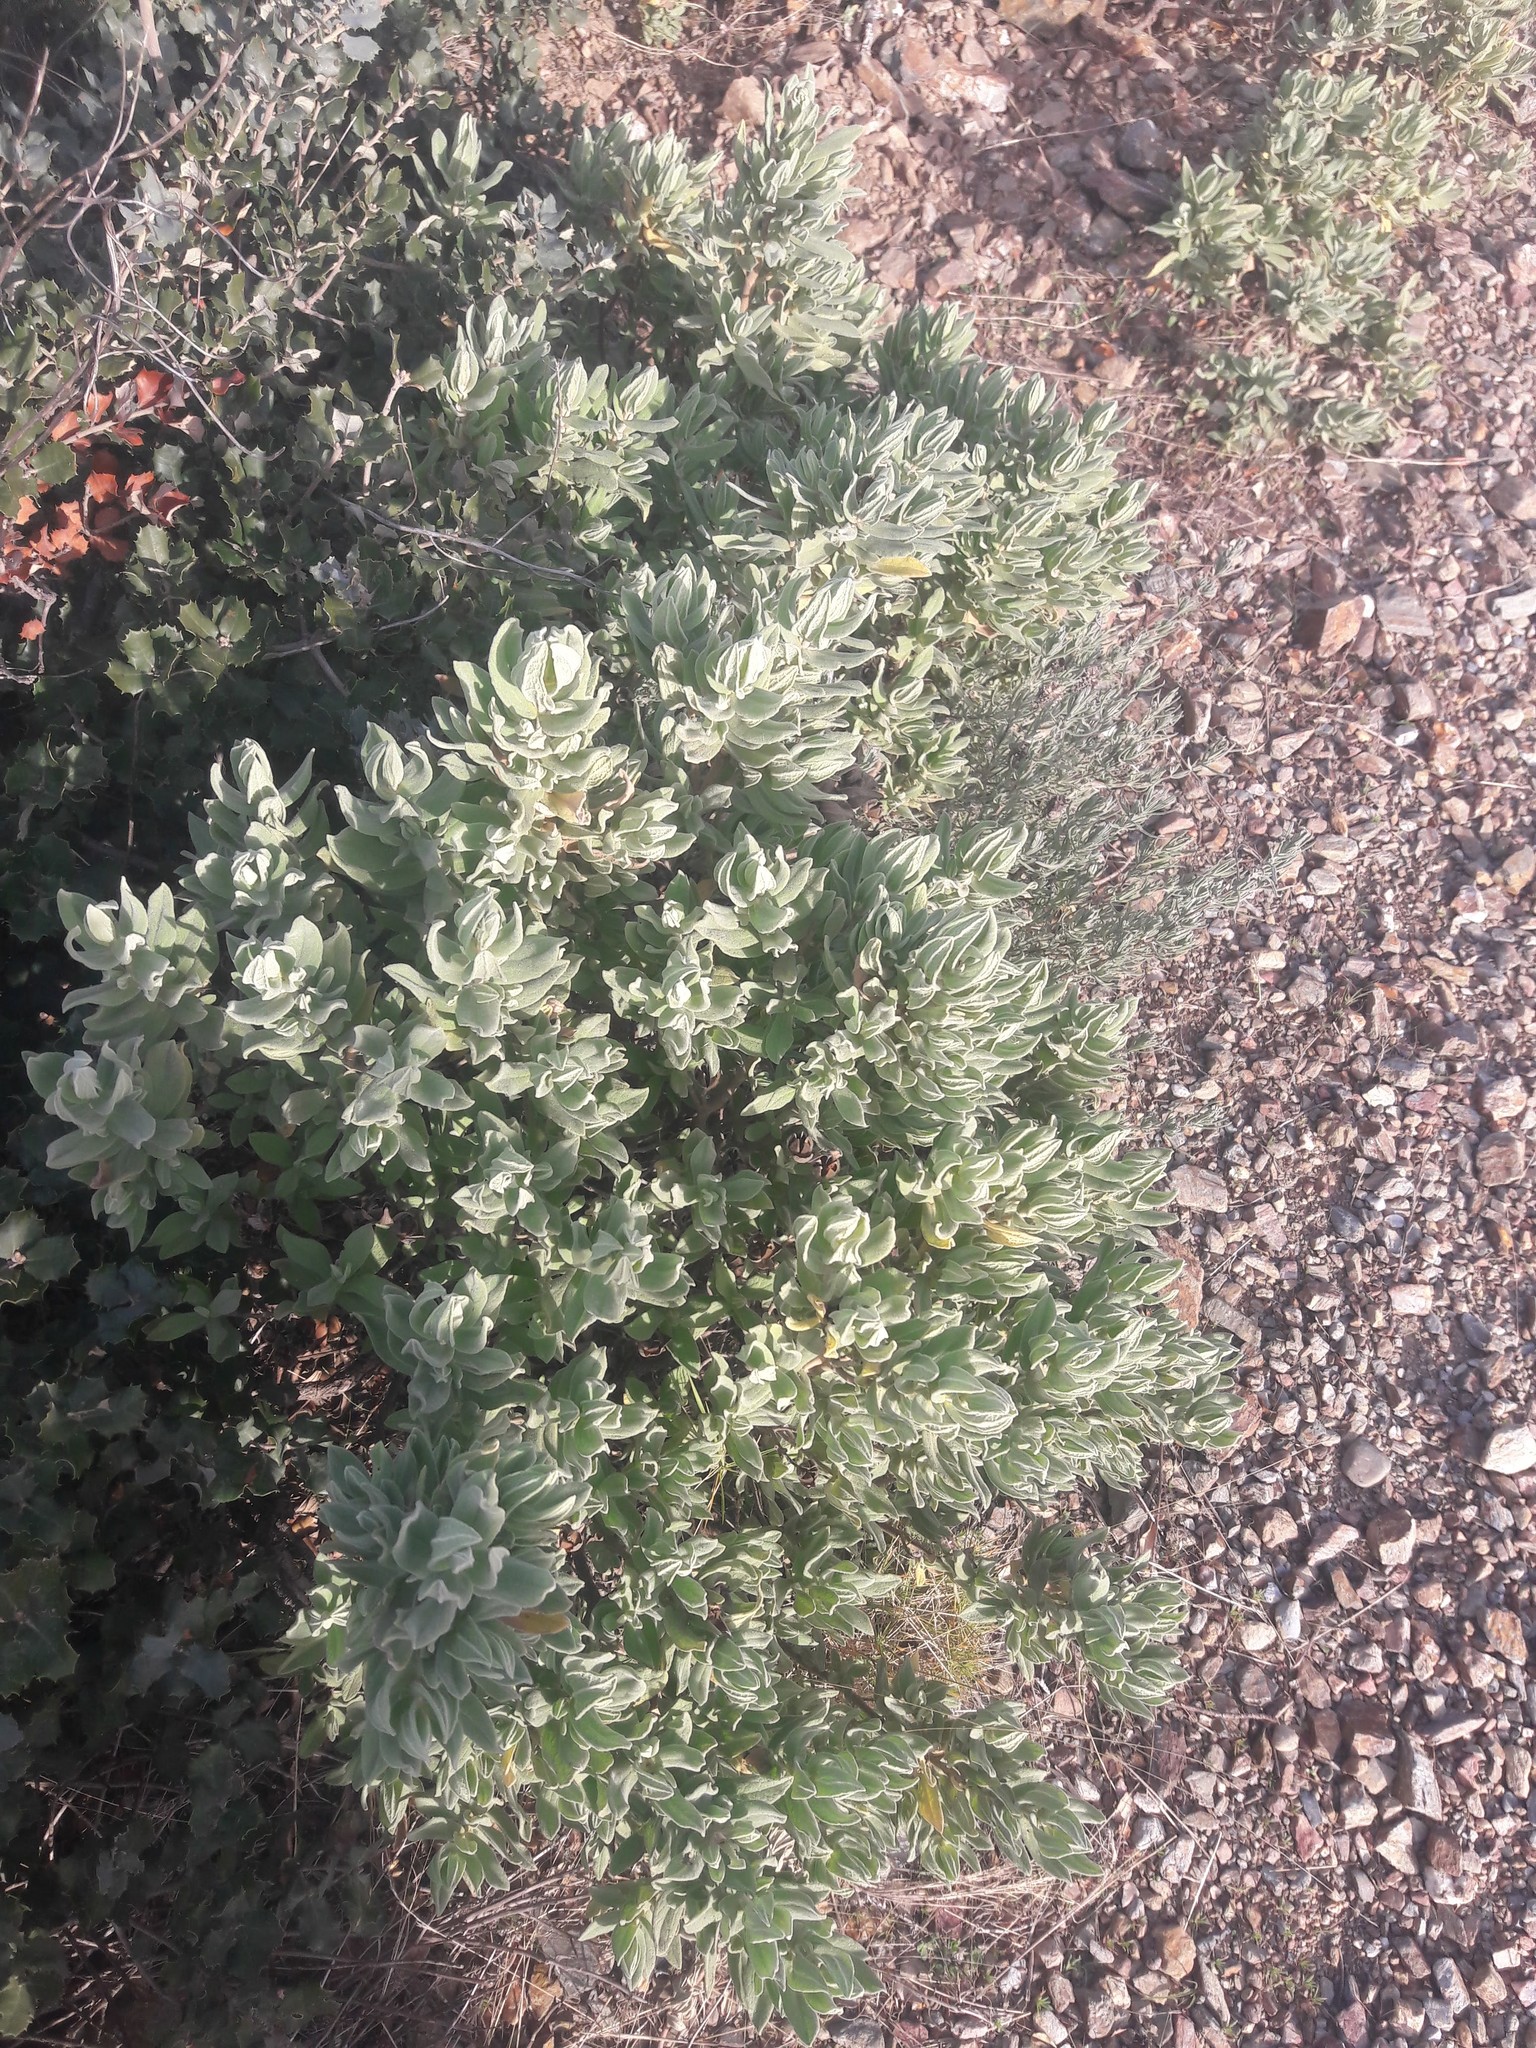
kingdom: Plantae
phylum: Tracheophyta
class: Magnoliopsida
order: Malvales
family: Cistaceae
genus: Cistus
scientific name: Cistus albidus
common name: White-leaf rock-rose
